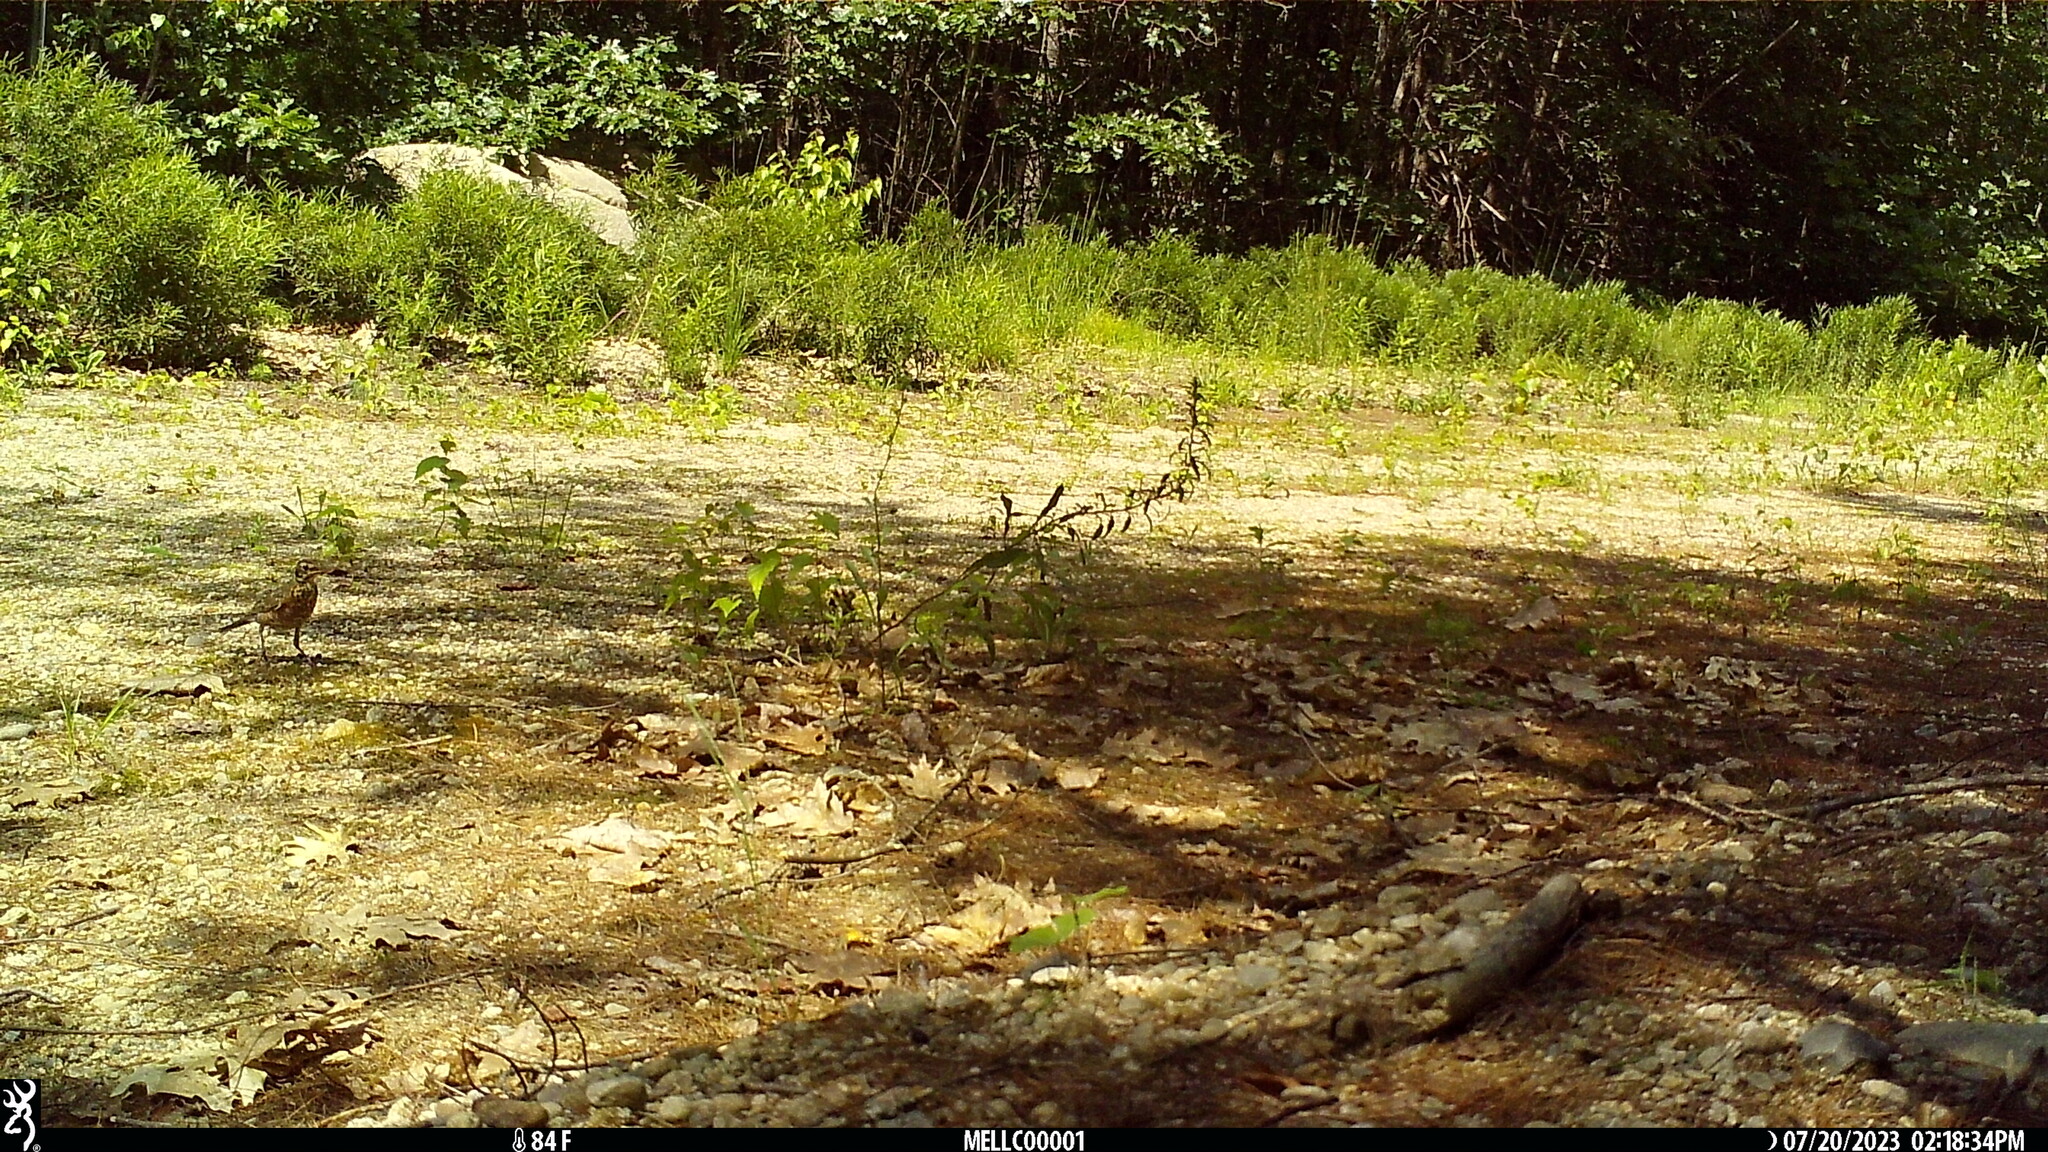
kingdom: Animalia
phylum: Chordata
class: Aves
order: Passeriformes
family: Turdidae
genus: Turdus
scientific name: Turdus migratorius
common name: American robin
